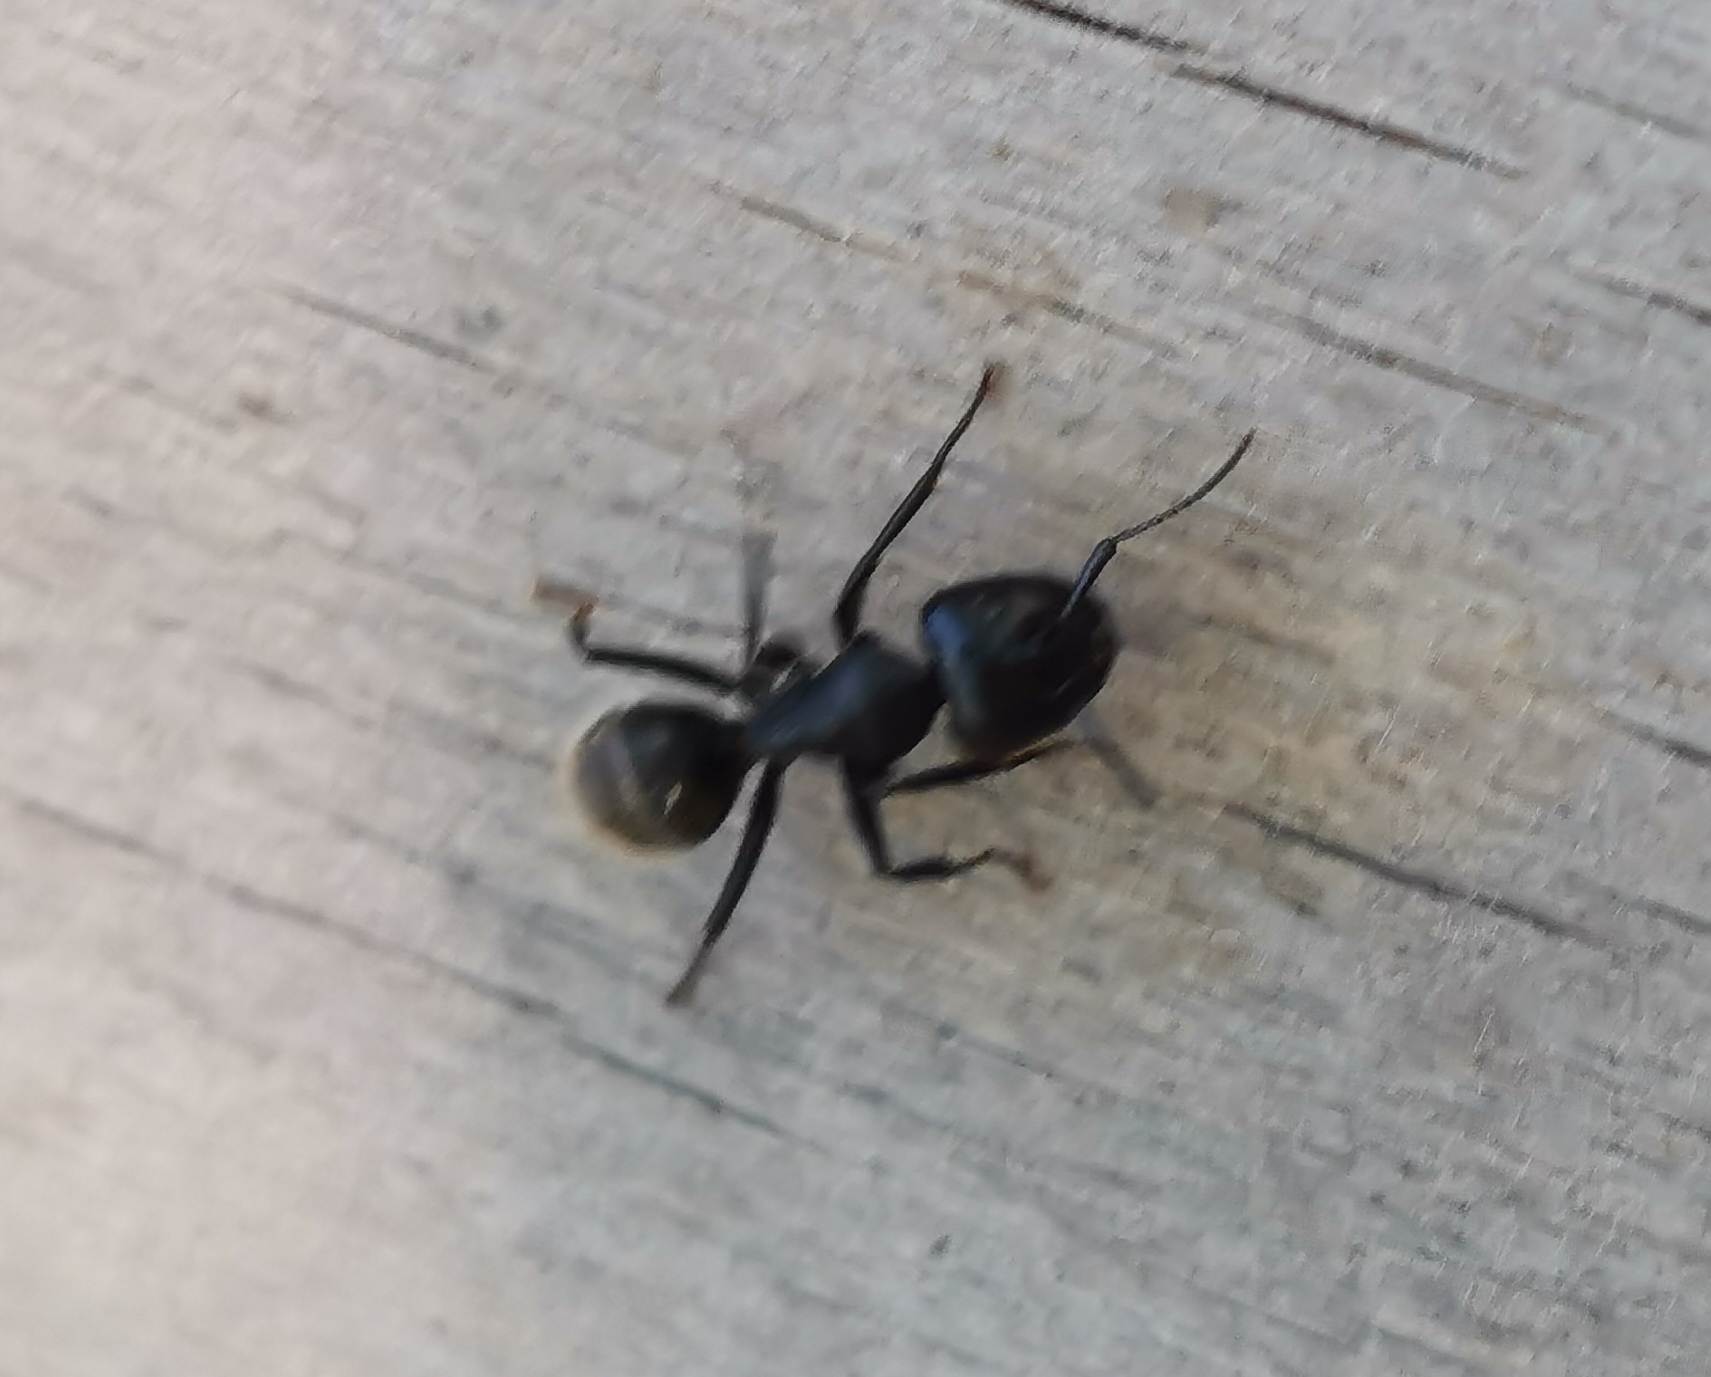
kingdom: Animalia
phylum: Arthropoda
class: Insecta
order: Hymenoptera
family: Formicidae
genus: Camponotus
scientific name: Camponotus vagus
